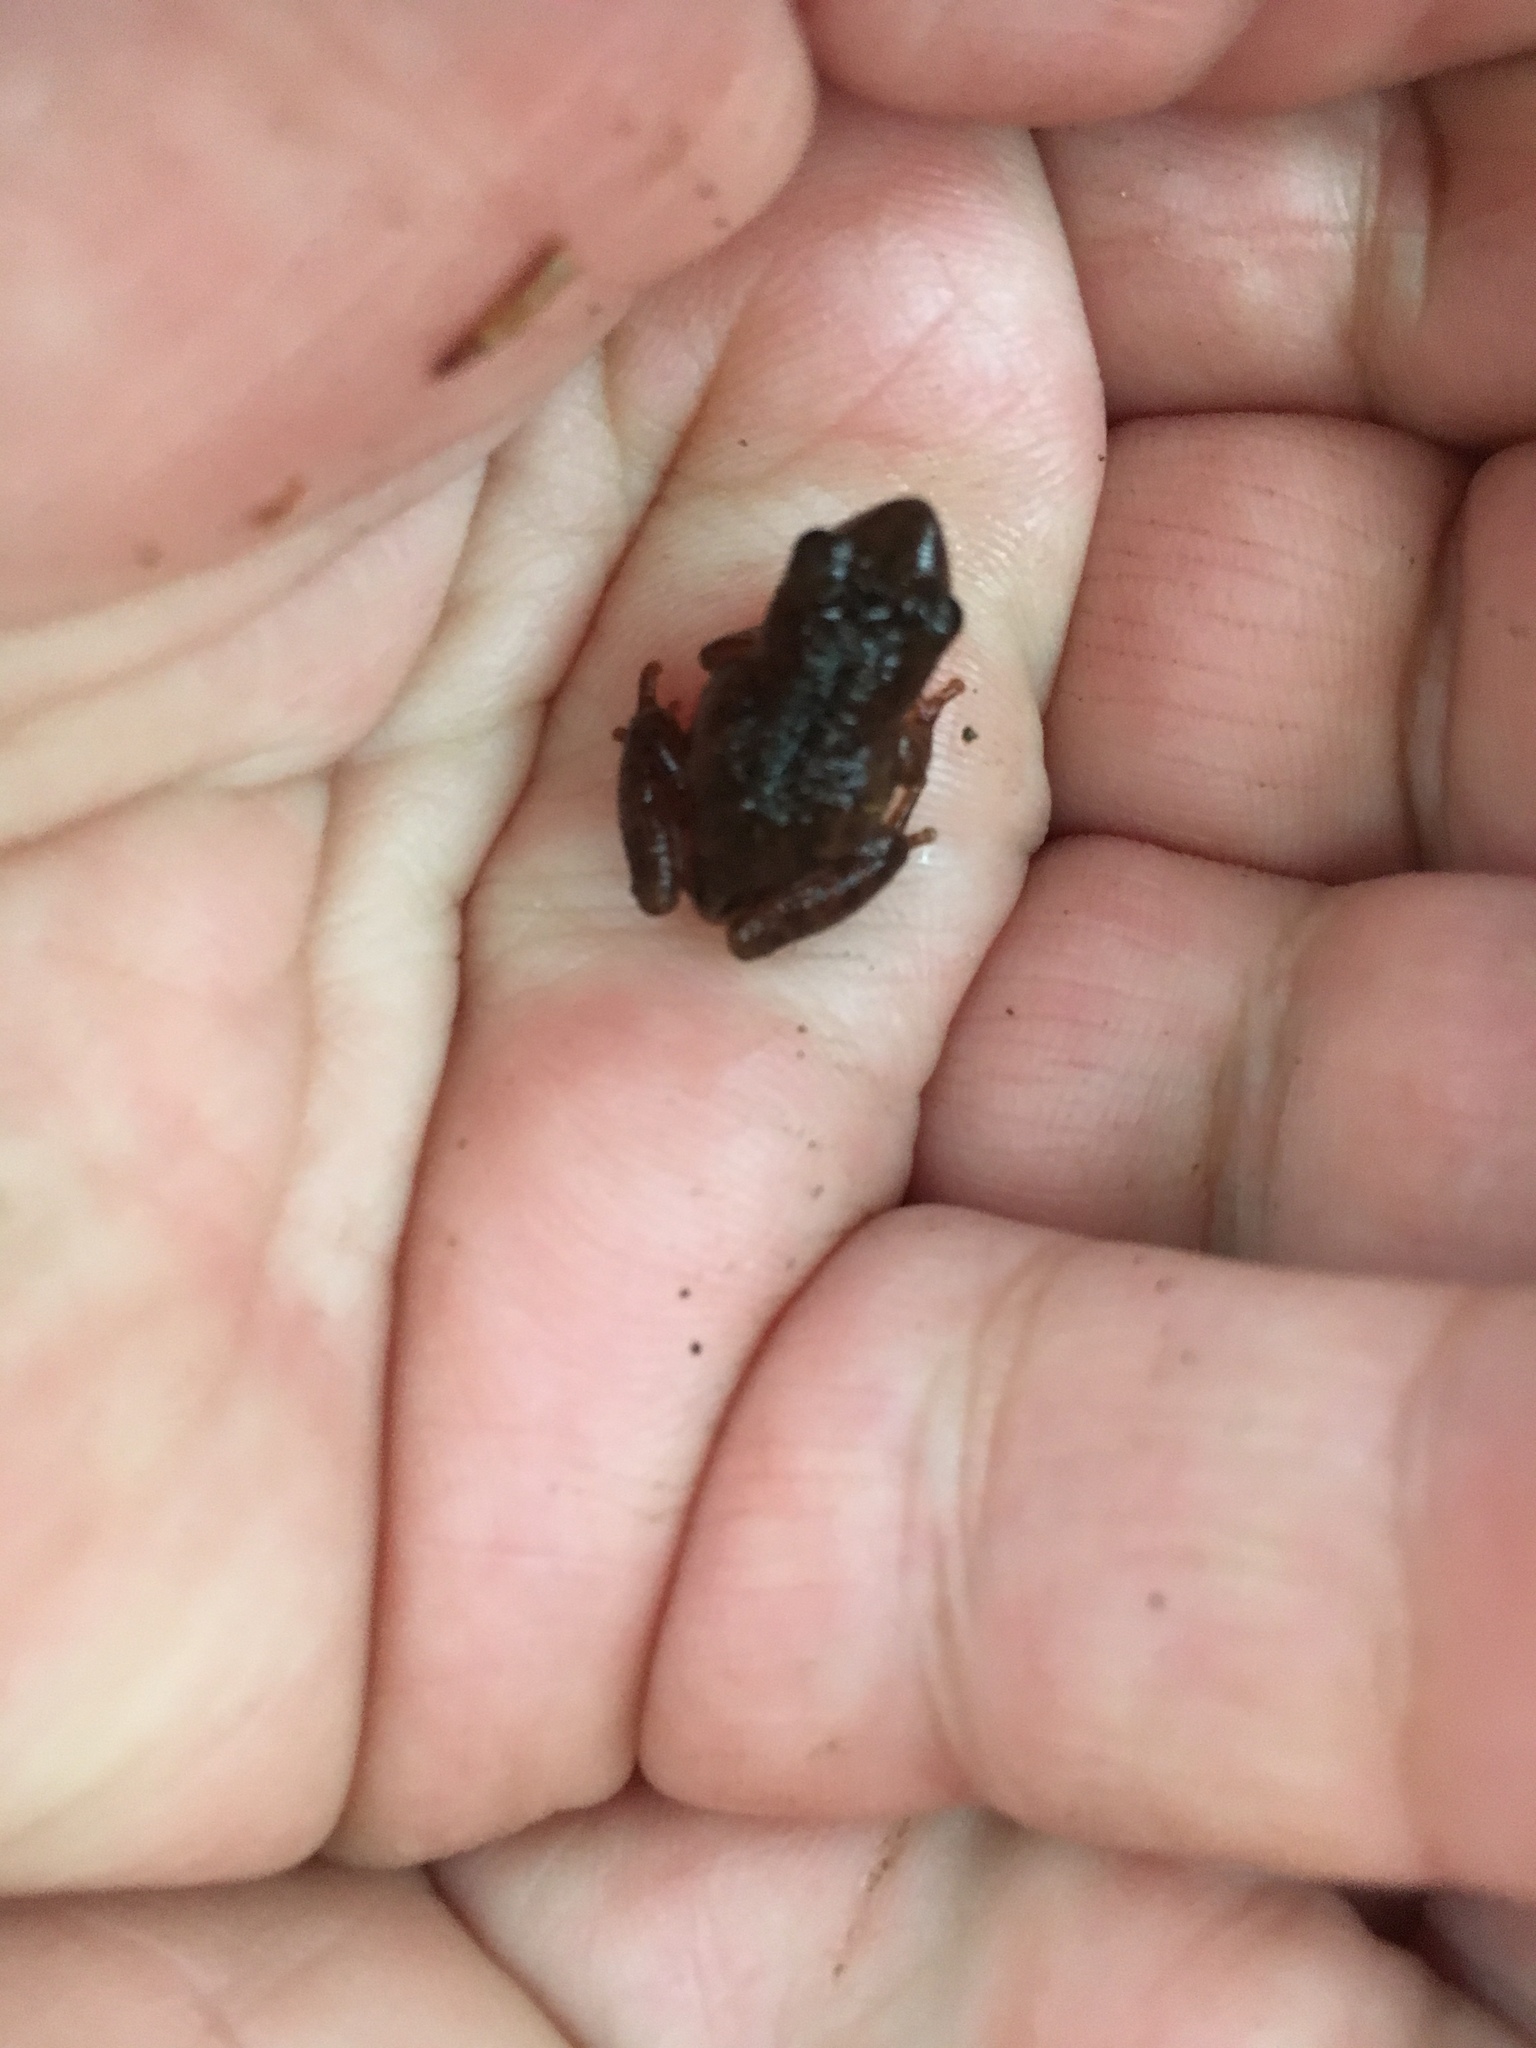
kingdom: Animalia
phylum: Chordata
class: Amphibia
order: Anura
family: Hylidae
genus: Pseudacris
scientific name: Pseudacris crucifer
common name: Spring peeper
